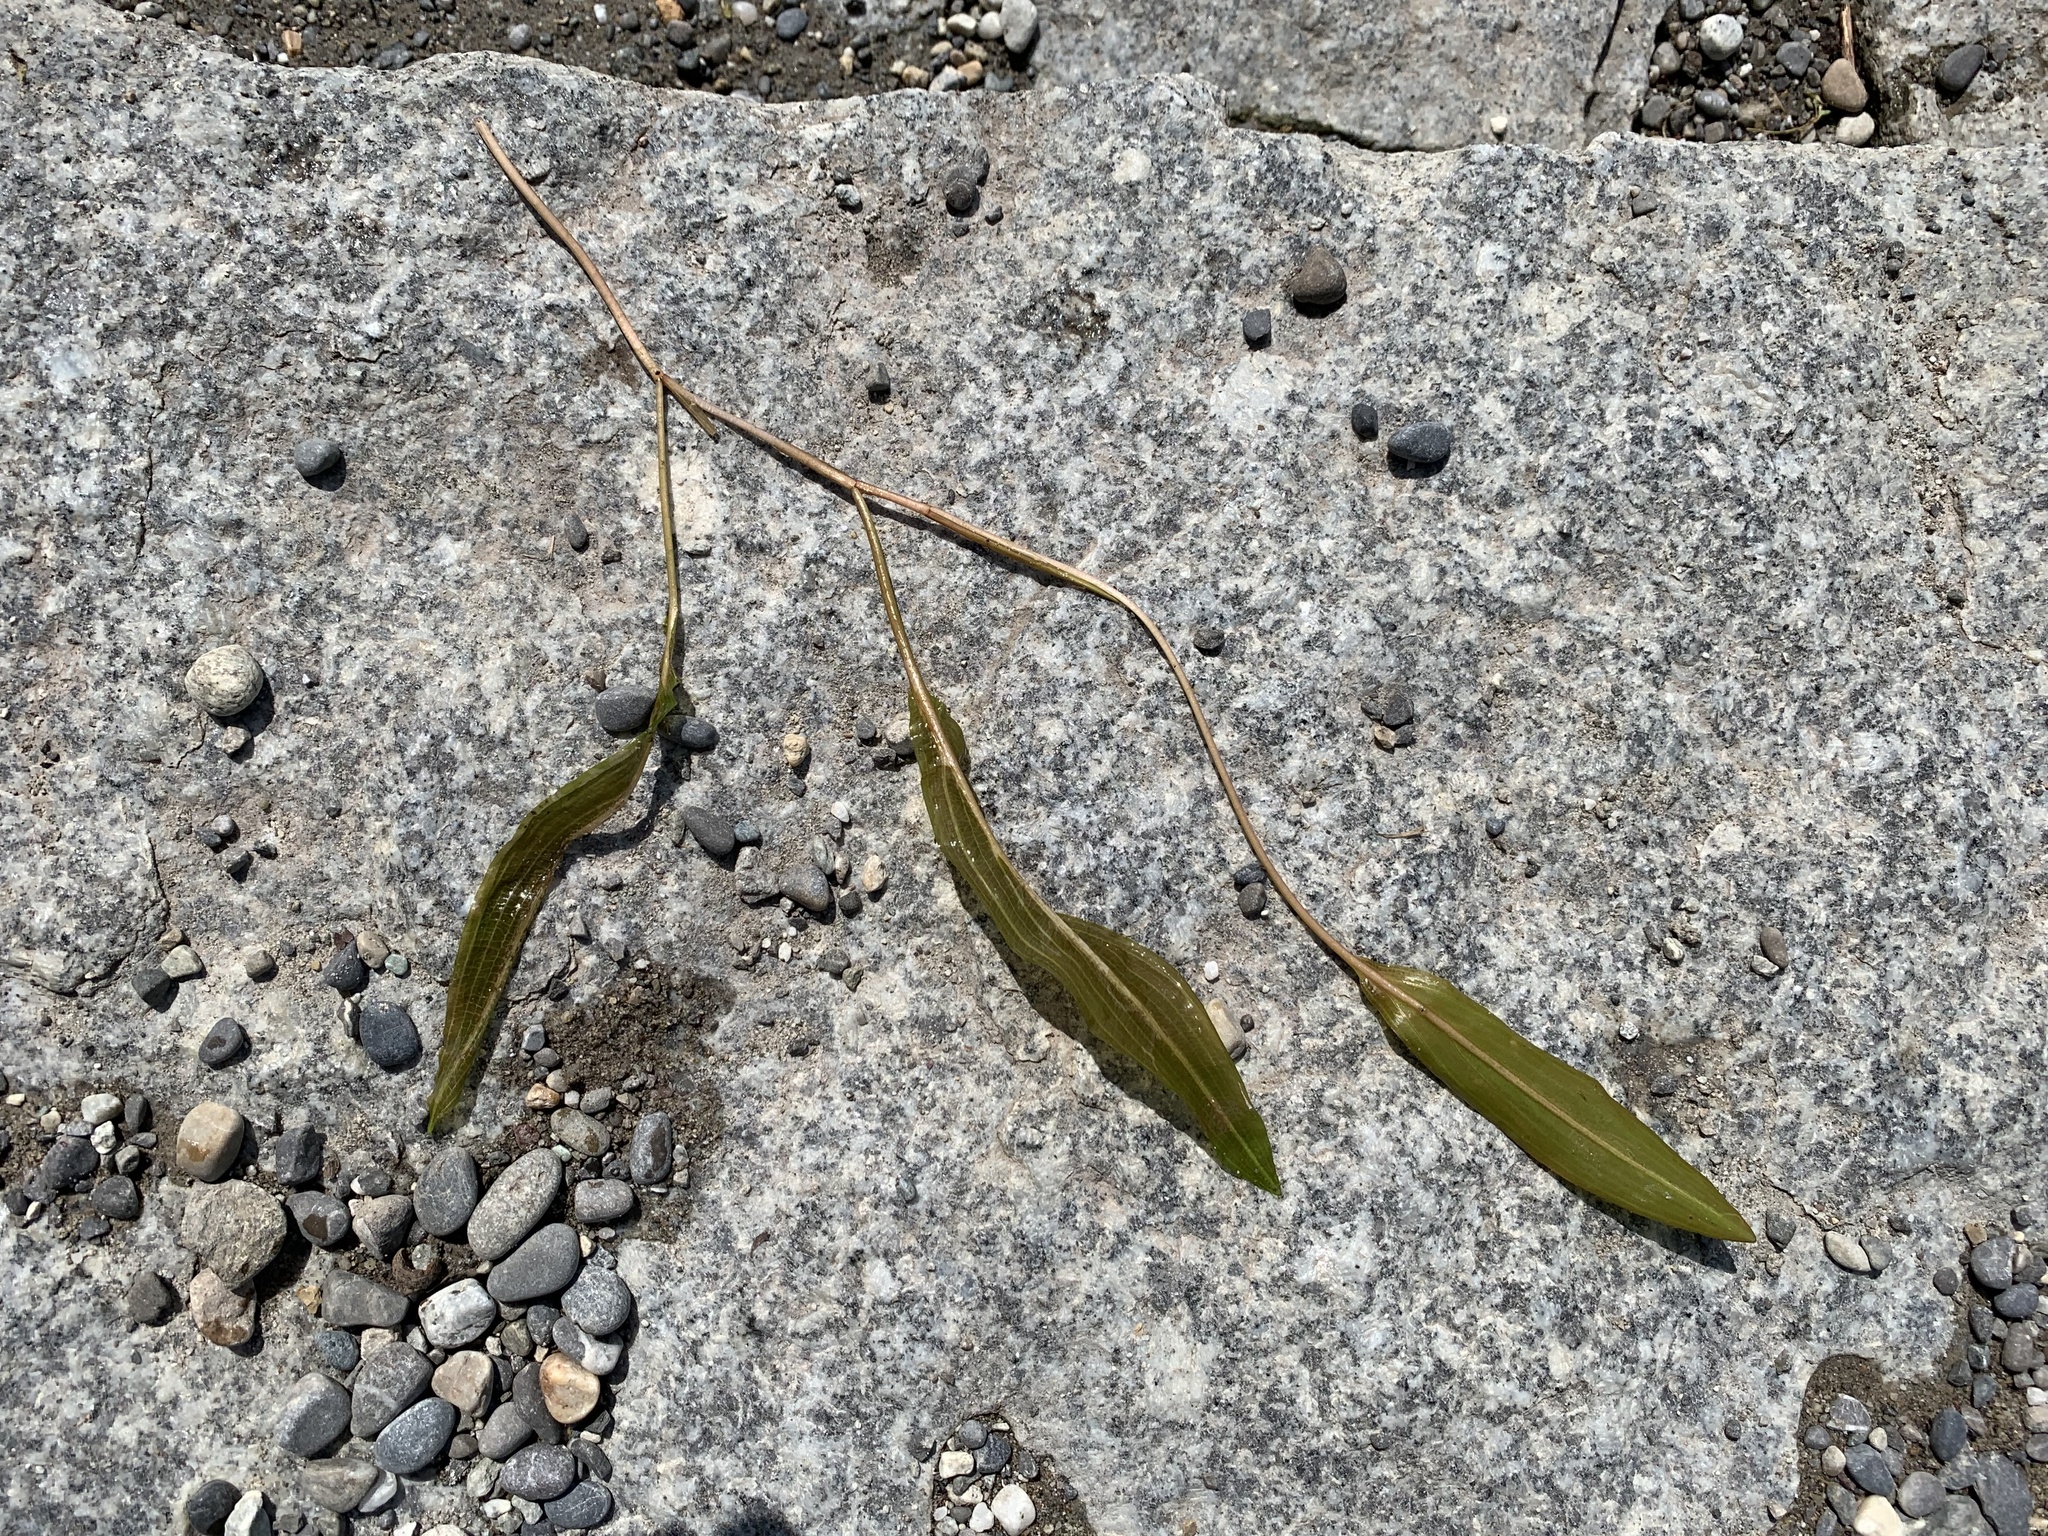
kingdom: Plantae
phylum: Tracheophyta
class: Liliopsida
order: Alismatales
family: Potamogetonaceae
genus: Potamogeton
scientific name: Potamogeton angustifolius
